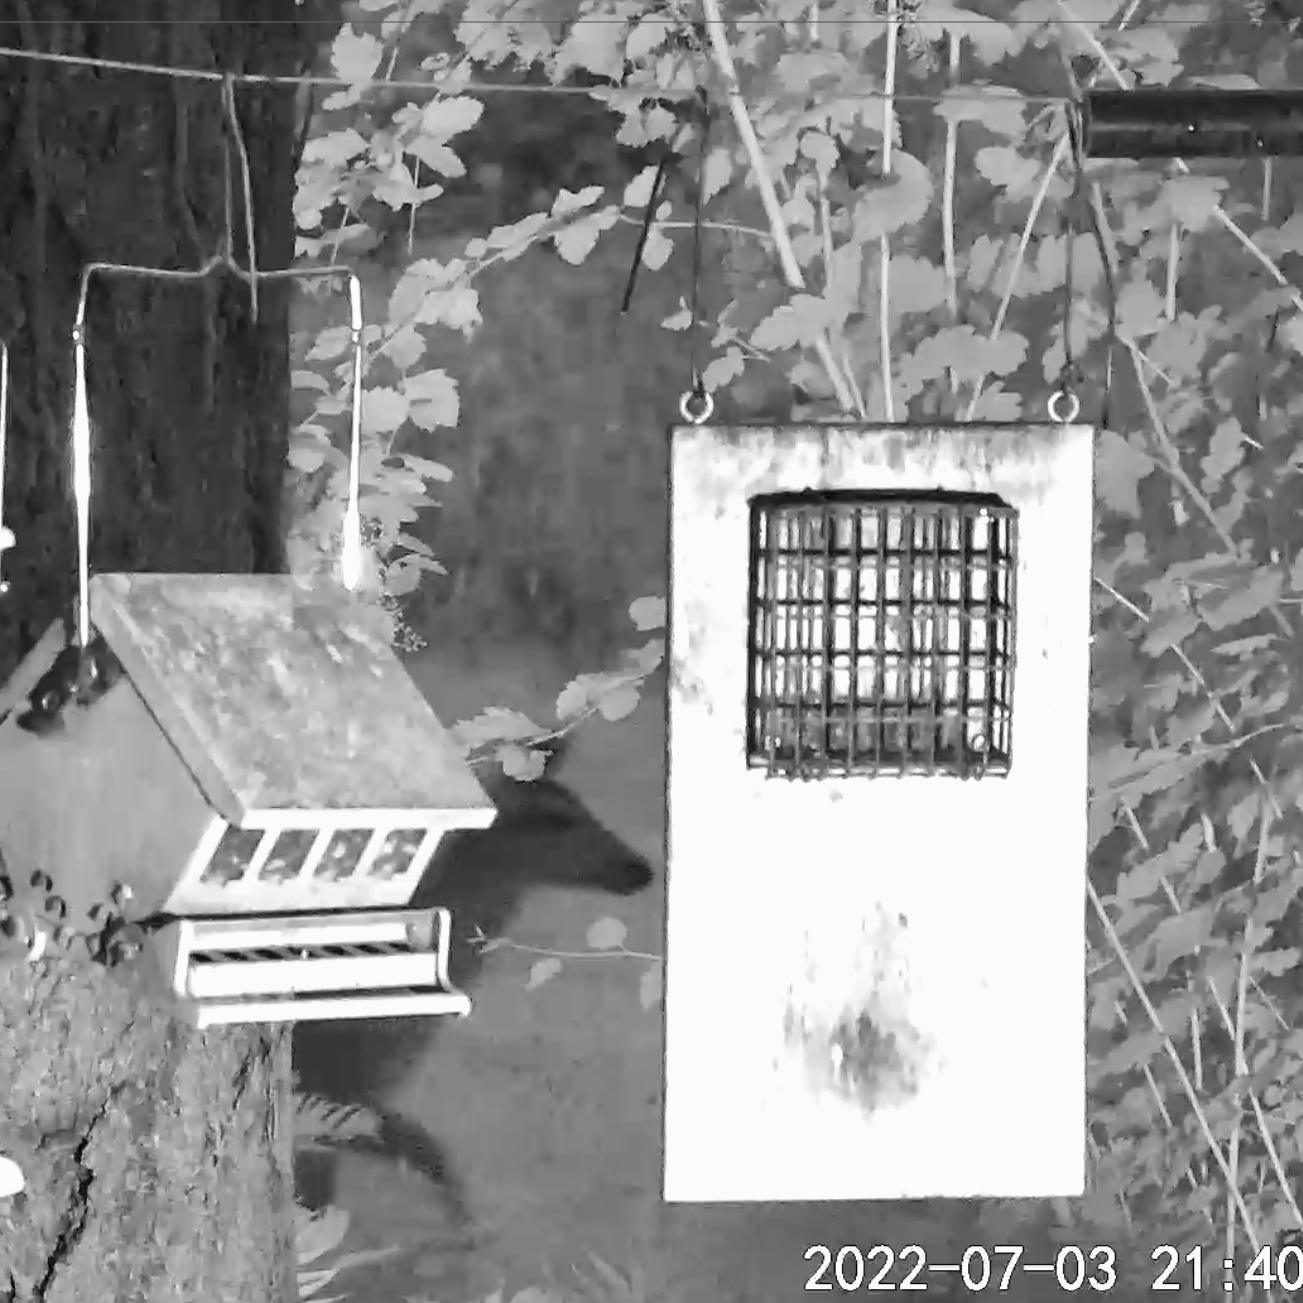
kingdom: Animalia
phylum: Chordata
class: Mammalia
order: Artiodactyla
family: Cervidae
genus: Odocoileus
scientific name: Odocoileus hemionus
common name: Mule deer
